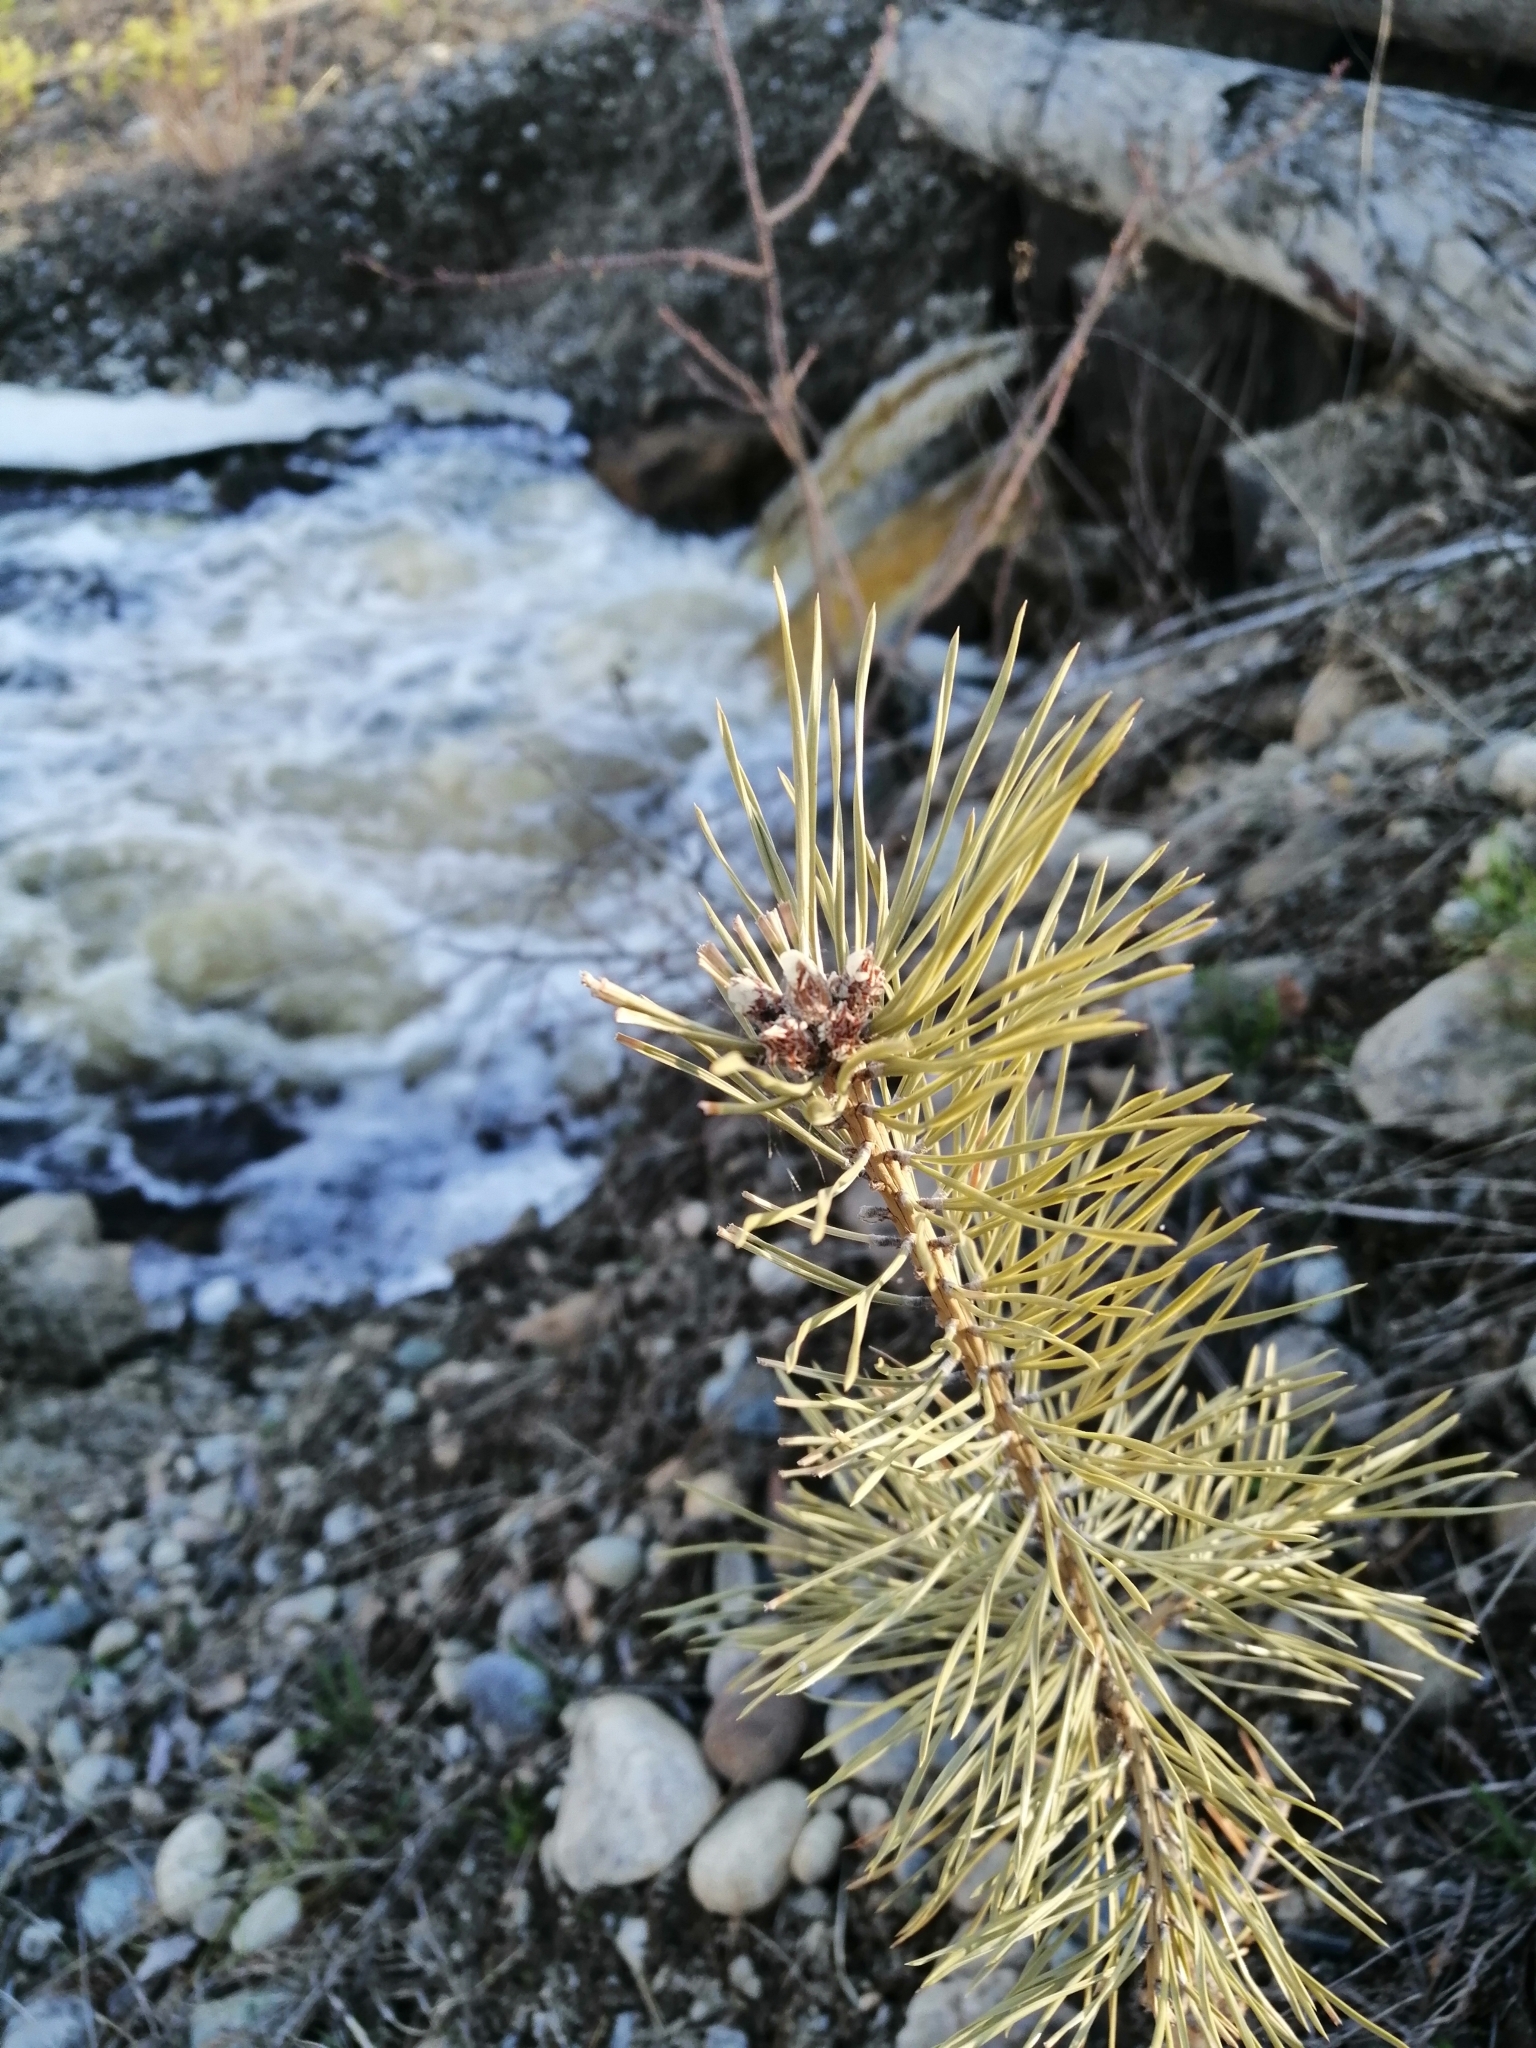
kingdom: Plantae
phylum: Tracheophyta
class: Pinopsida
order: Pinales
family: Pinaceae
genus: Pinus
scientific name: Pinus sylvestris
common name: Scots pine
